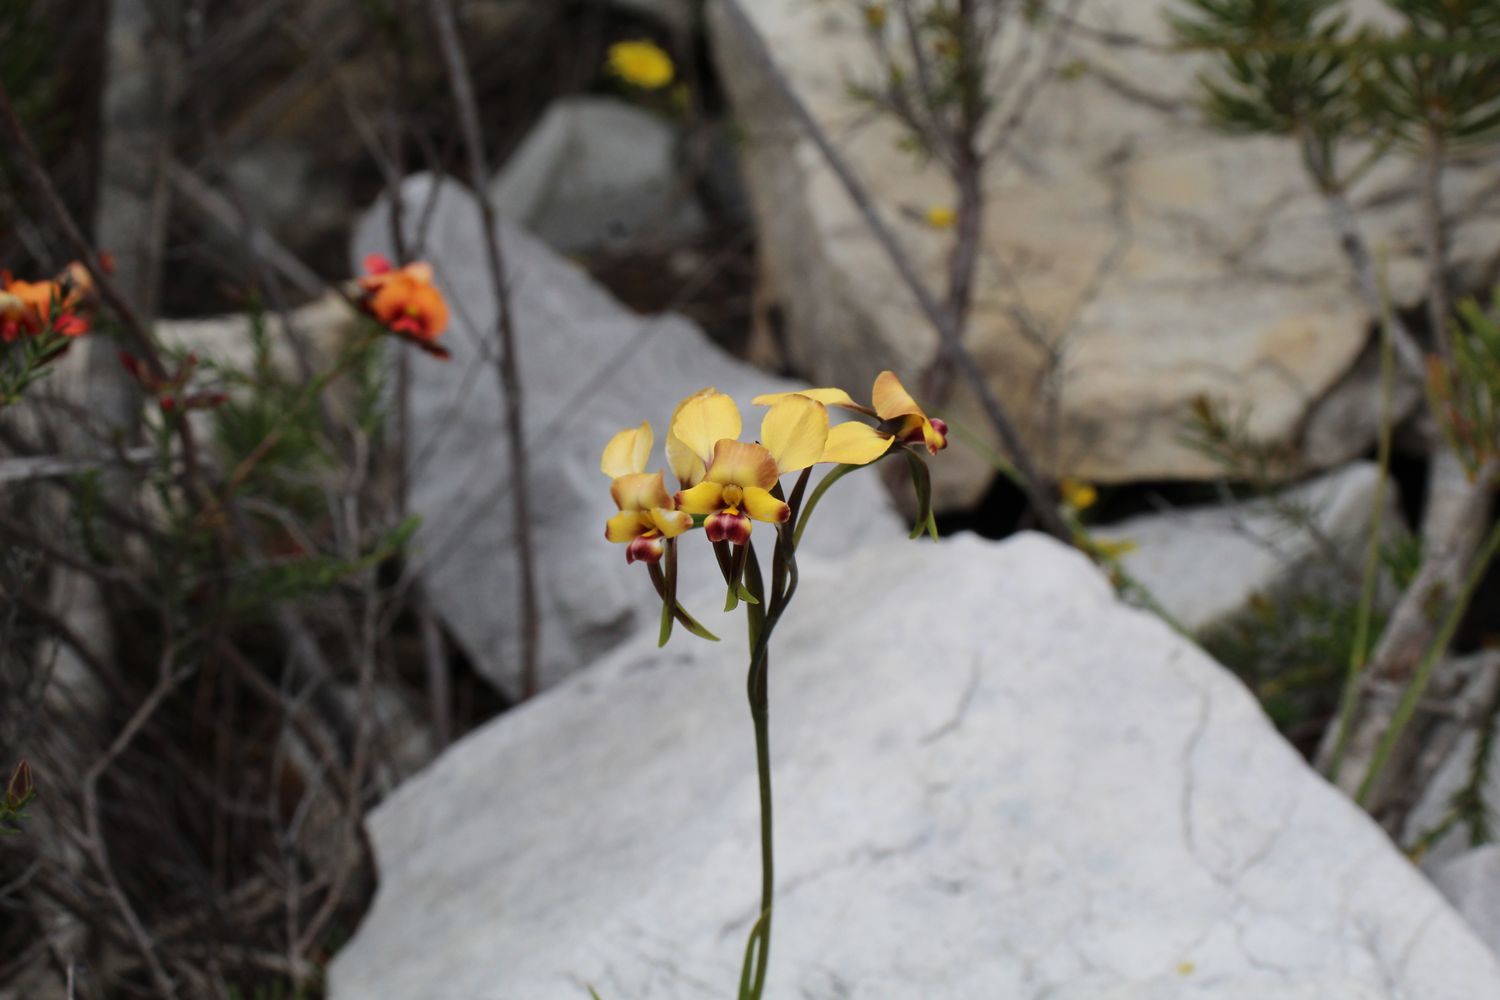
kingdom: Plantae
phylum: Tracheophyta
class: Liliopsida
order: Asparagales
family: Orchidaceae
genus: Diuris
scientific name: Diuris brachyscapa
